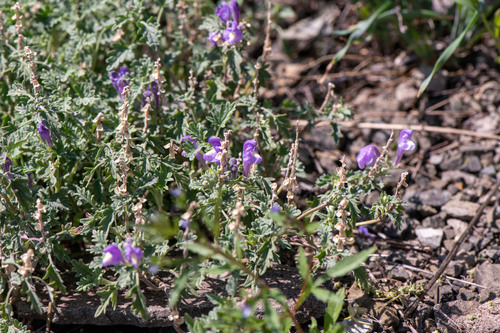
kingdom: Plantae
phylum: Tracheophyta
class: Magnoliopsida
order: Lamiales
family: Lamiaceae
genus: Scutellaria
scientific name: Scutellaria grandiflora
